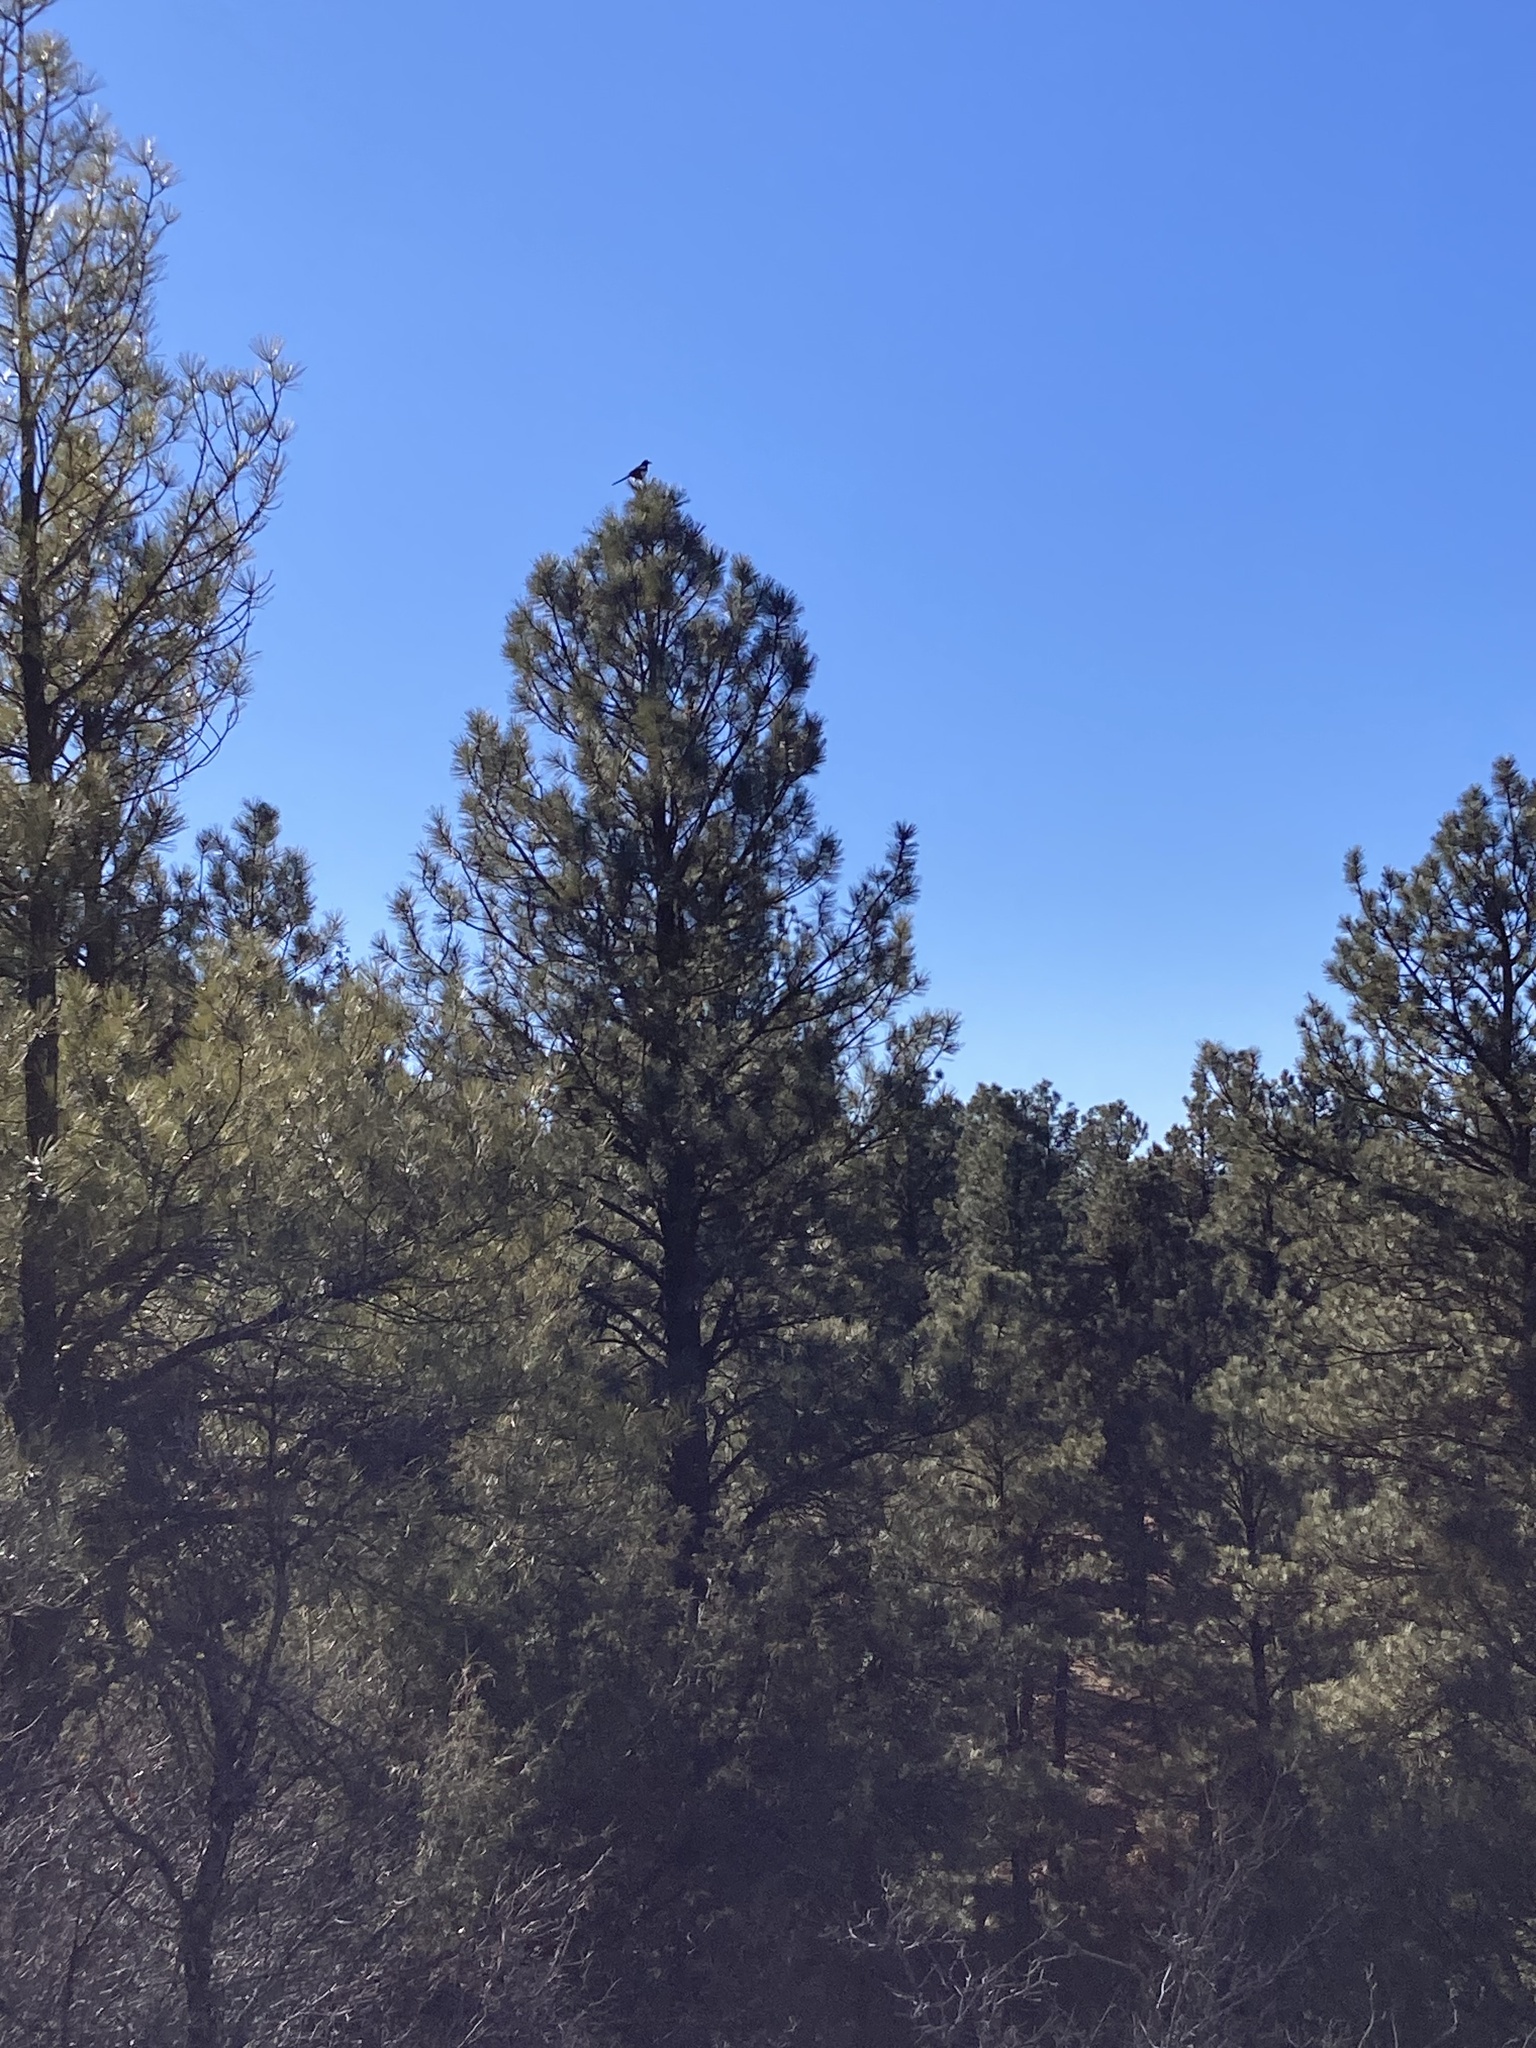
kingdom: Animalia
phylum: Chordata
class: Aves
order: Passeriformes
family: Corvidae
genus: Pica
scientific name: Pica hudsonia
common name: Black-billed magpie
